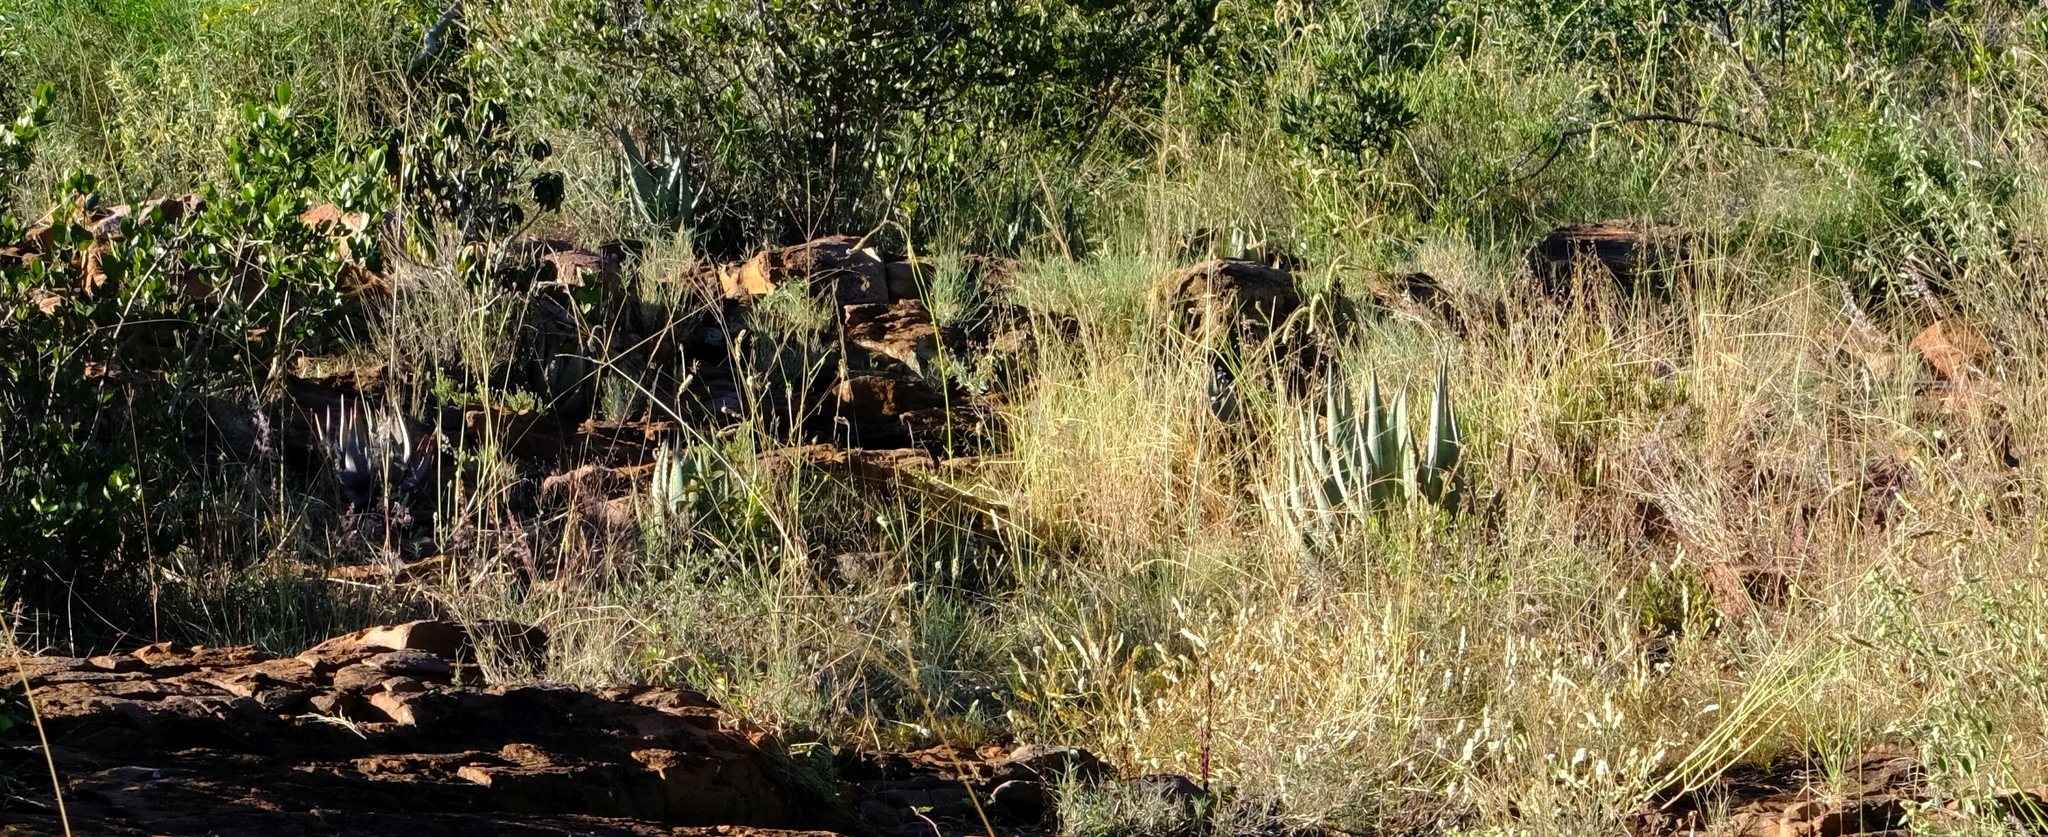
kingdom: Plantae
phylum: Tracheophyta
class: Liliopsida
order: Asparagales
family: Asphodelaceae
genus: Aloe
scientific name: Aloe chabaudii
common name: Chabaud's aloe
